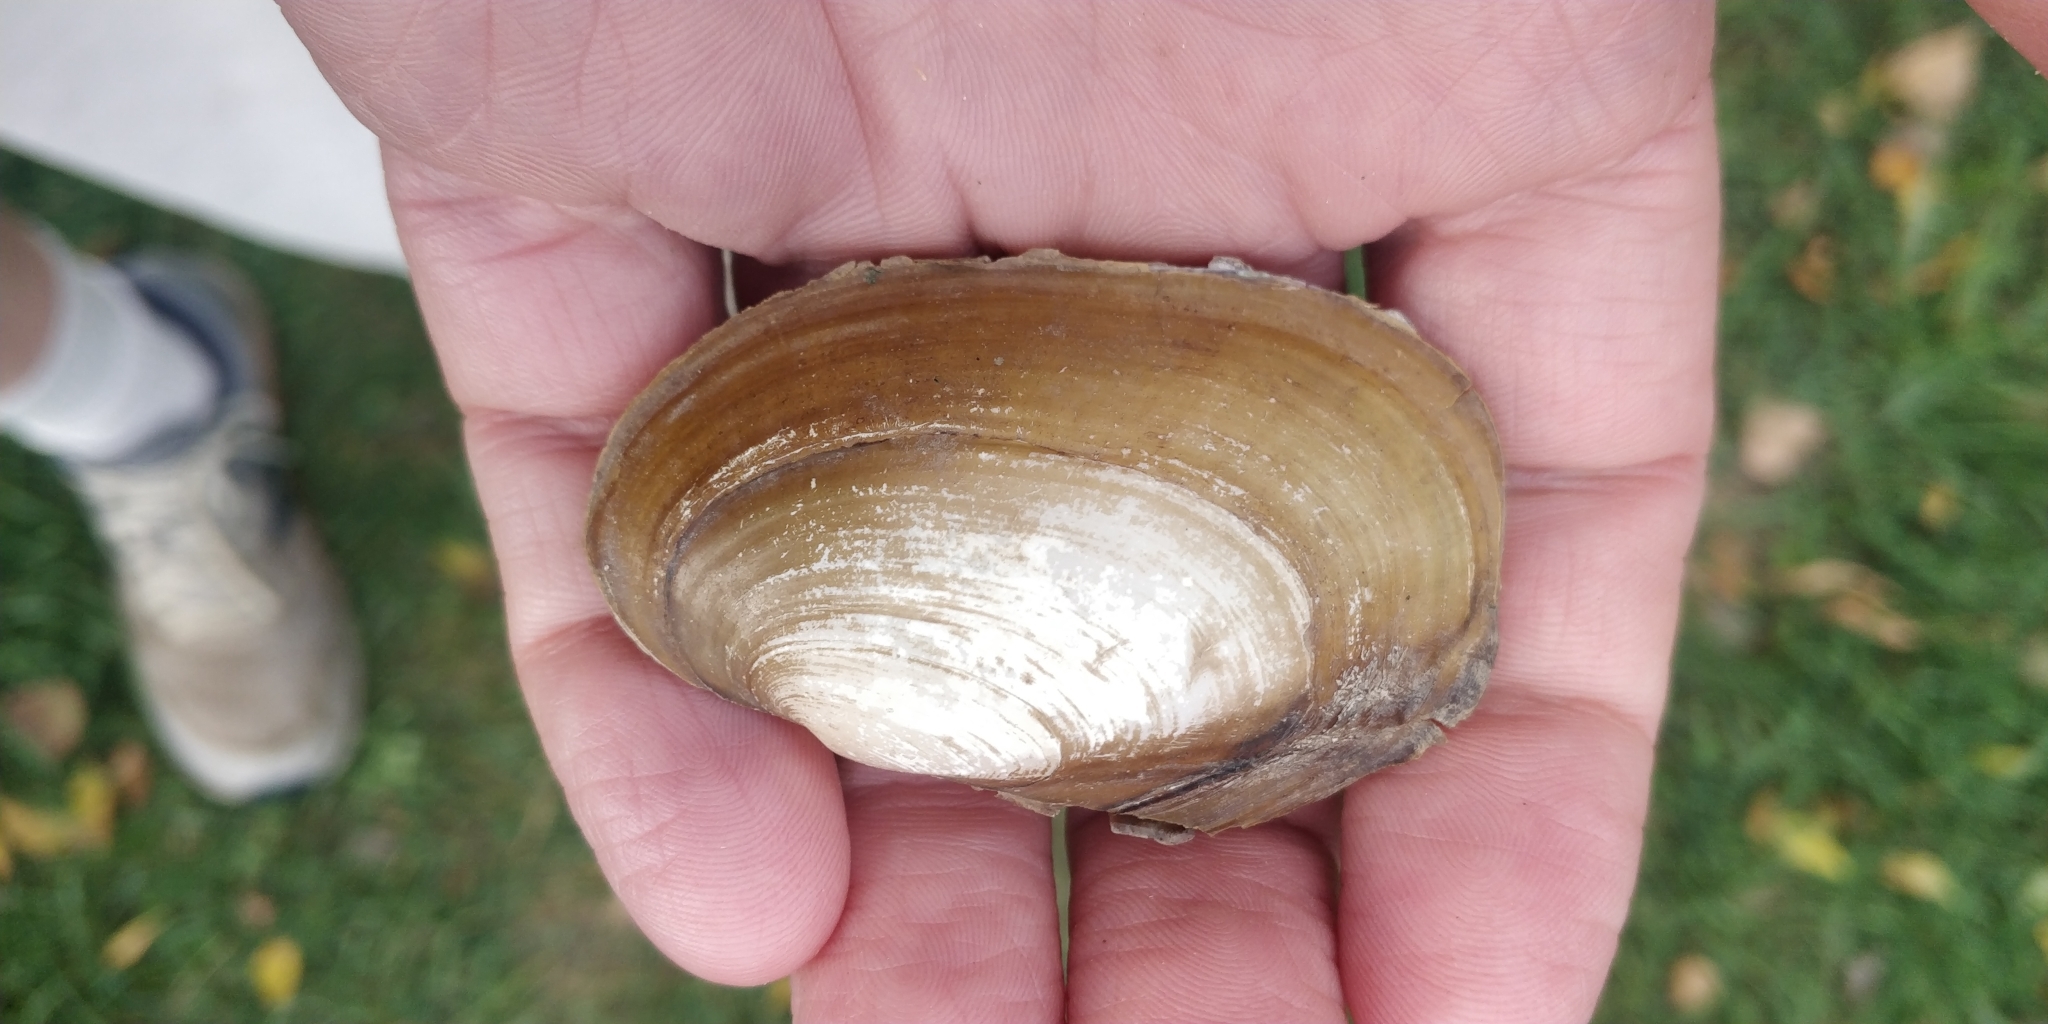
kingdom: Animalia
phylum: Mollusca
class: Bivalvia
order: Unionida
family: Unionidae
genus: Potamilus
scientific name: Potamilus fragilis
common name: Fragile papershell
